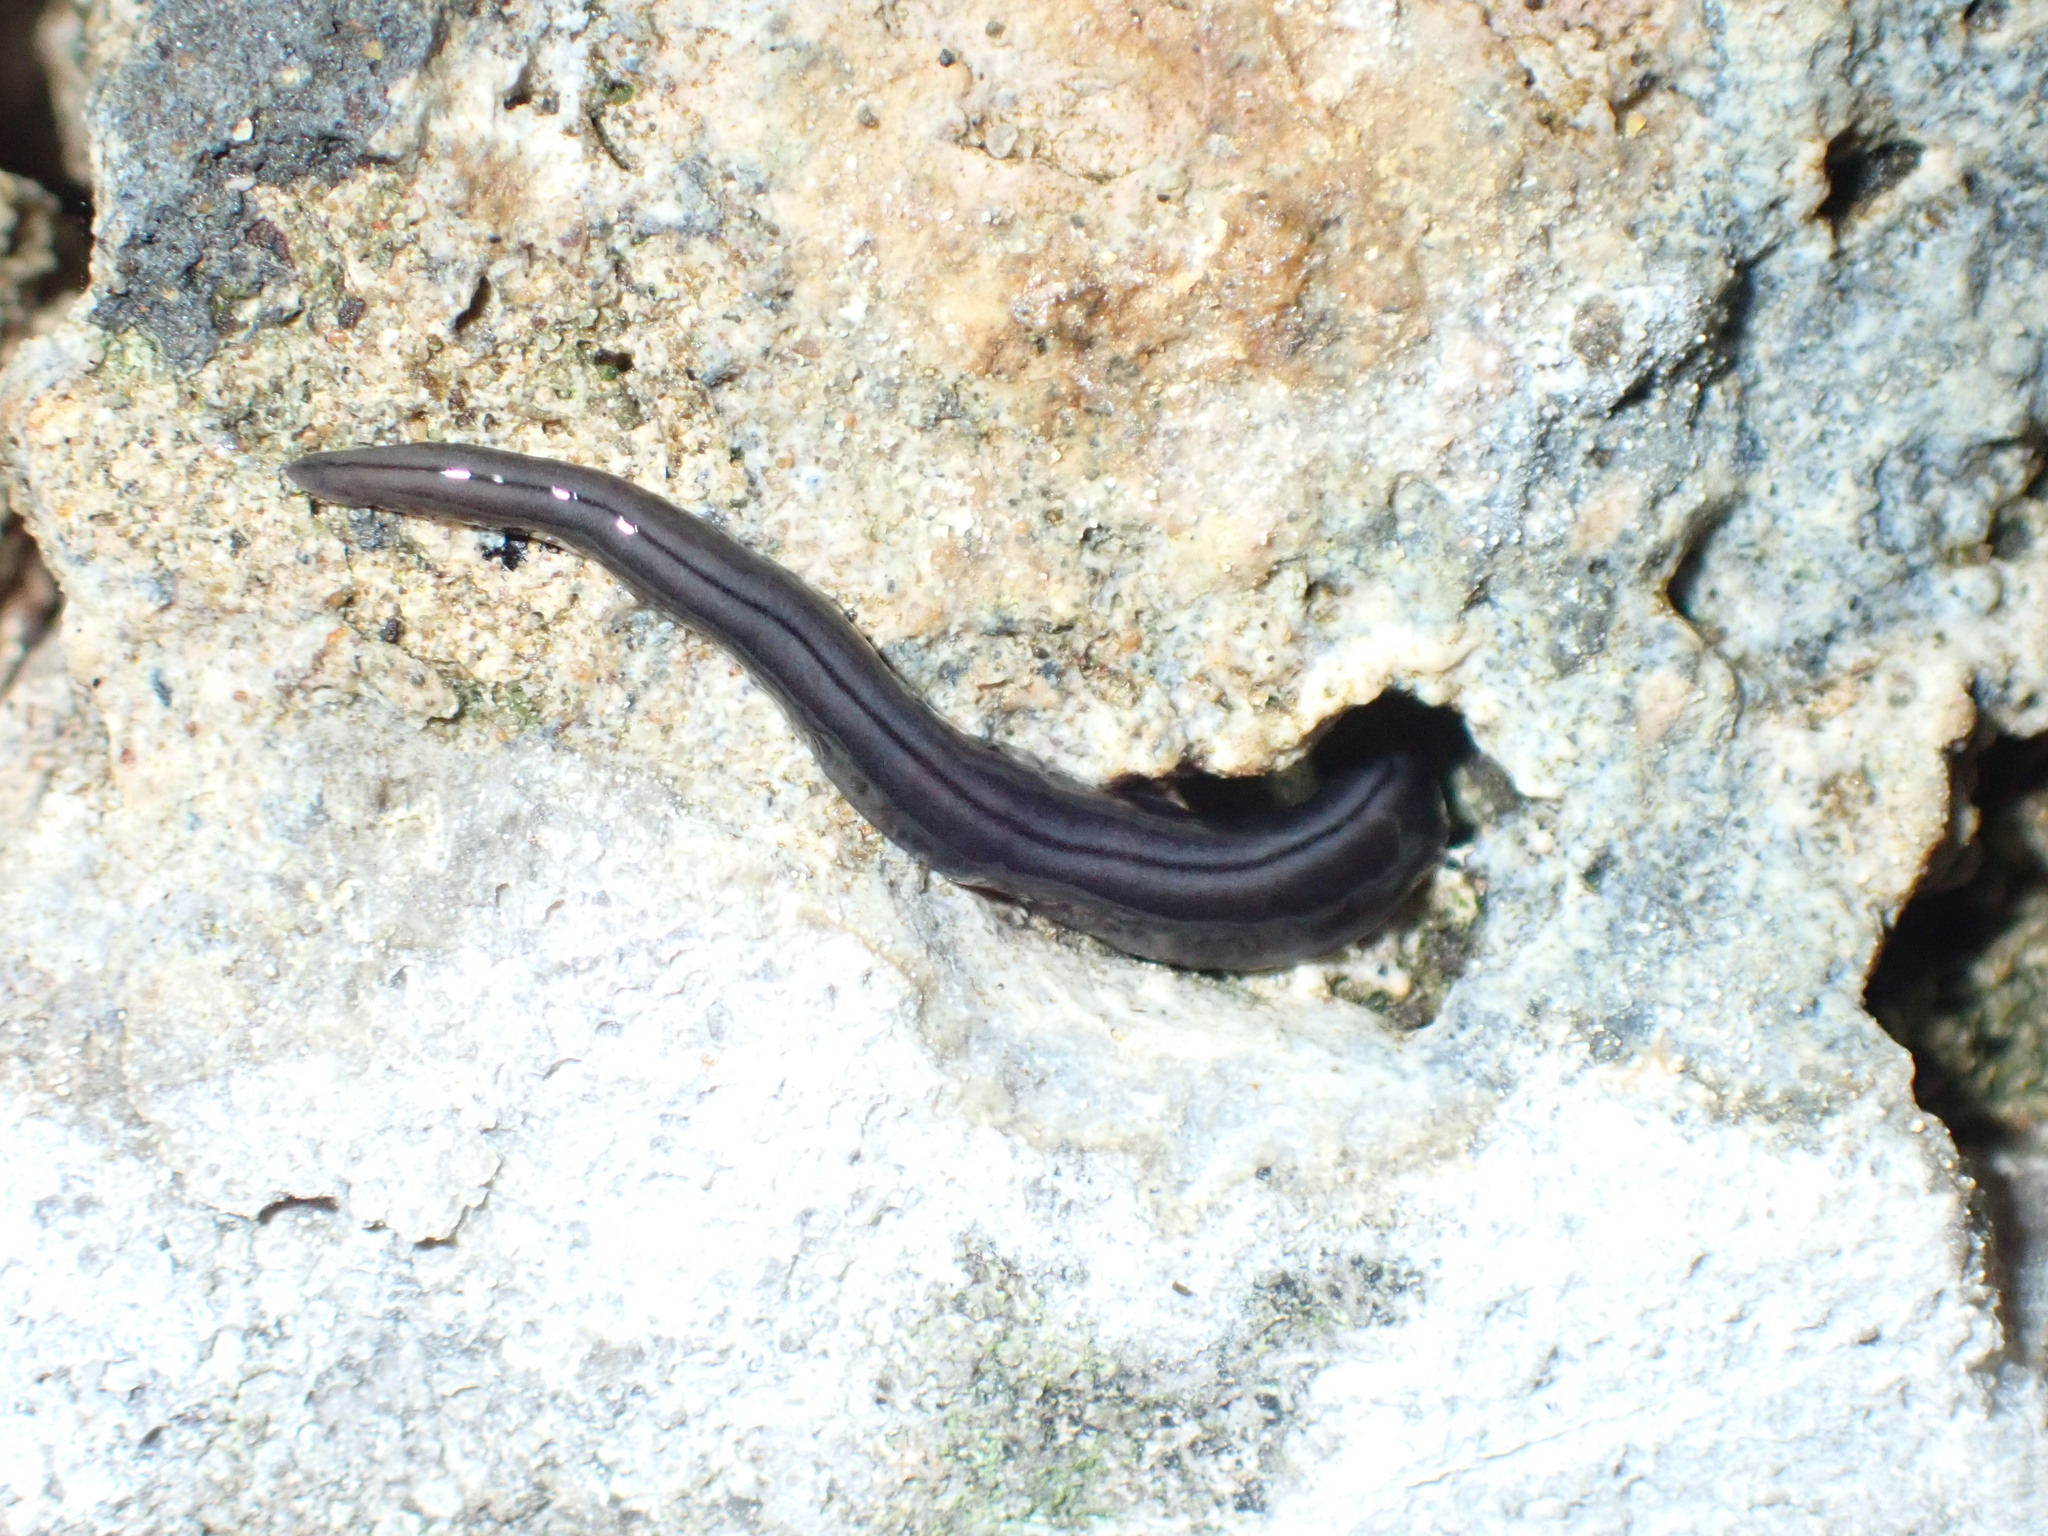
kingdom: Animalia
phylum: Platyhelminthes
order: Tricladida
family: Geoplanidae
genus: Parakontikia
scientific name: Parakontikia ventrolineata
